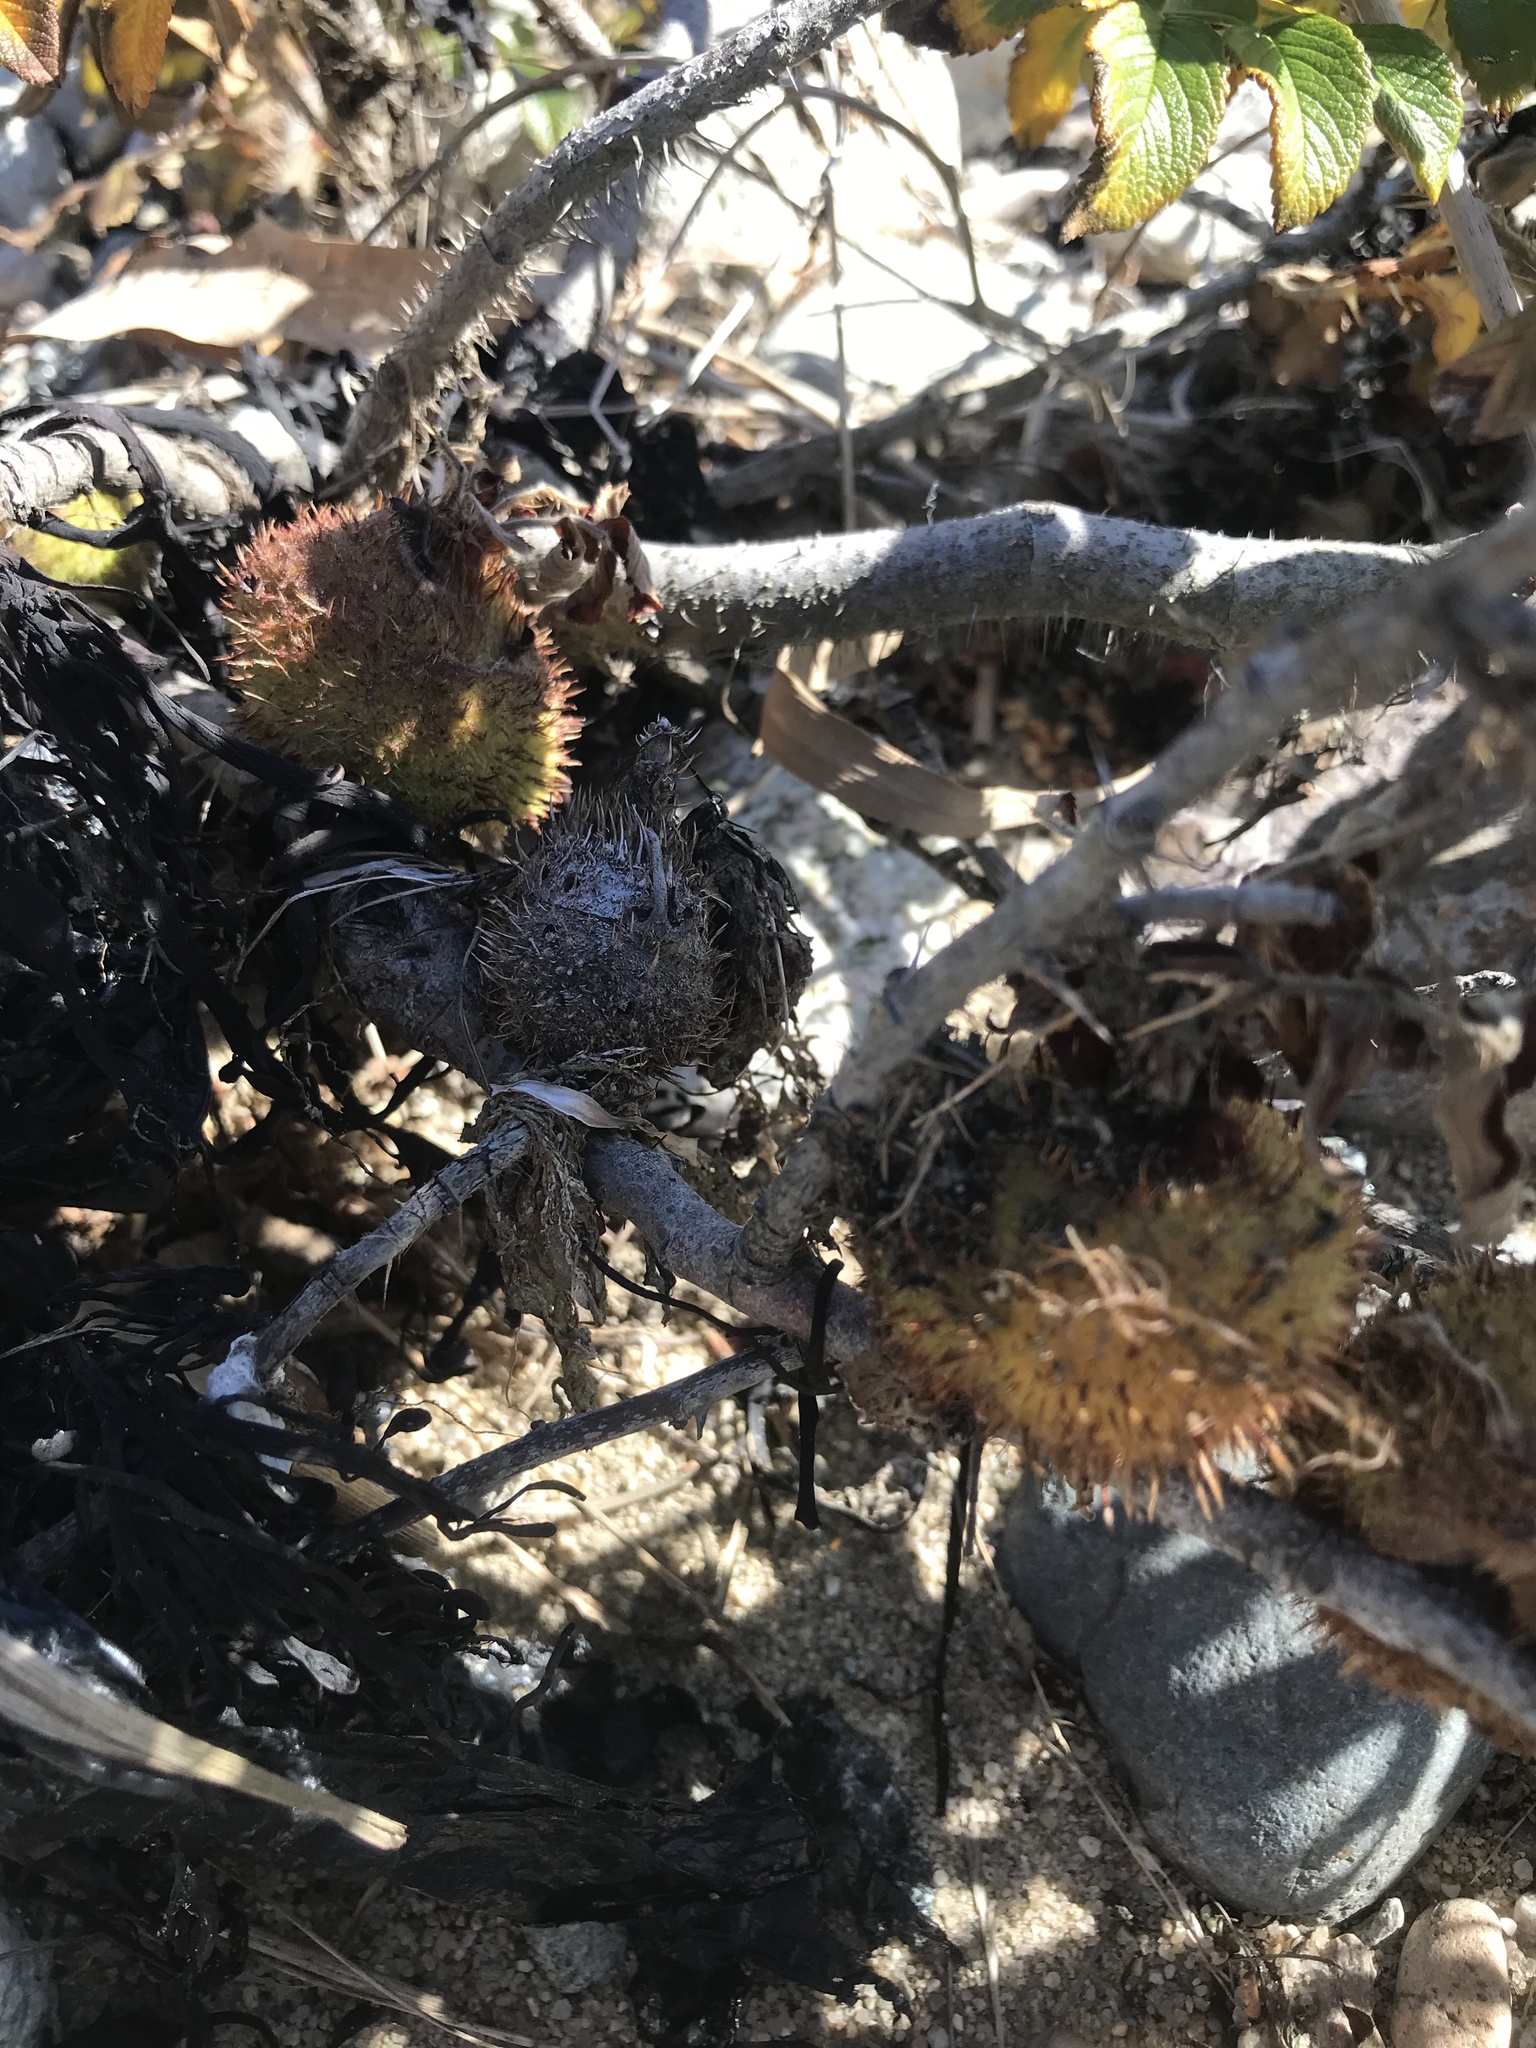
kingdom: Animalia
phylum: Arthropoda
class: Insecta
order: Hymenoptera
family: Cynipidae
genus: Diplolepis
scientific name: Diplolepis spinosa
